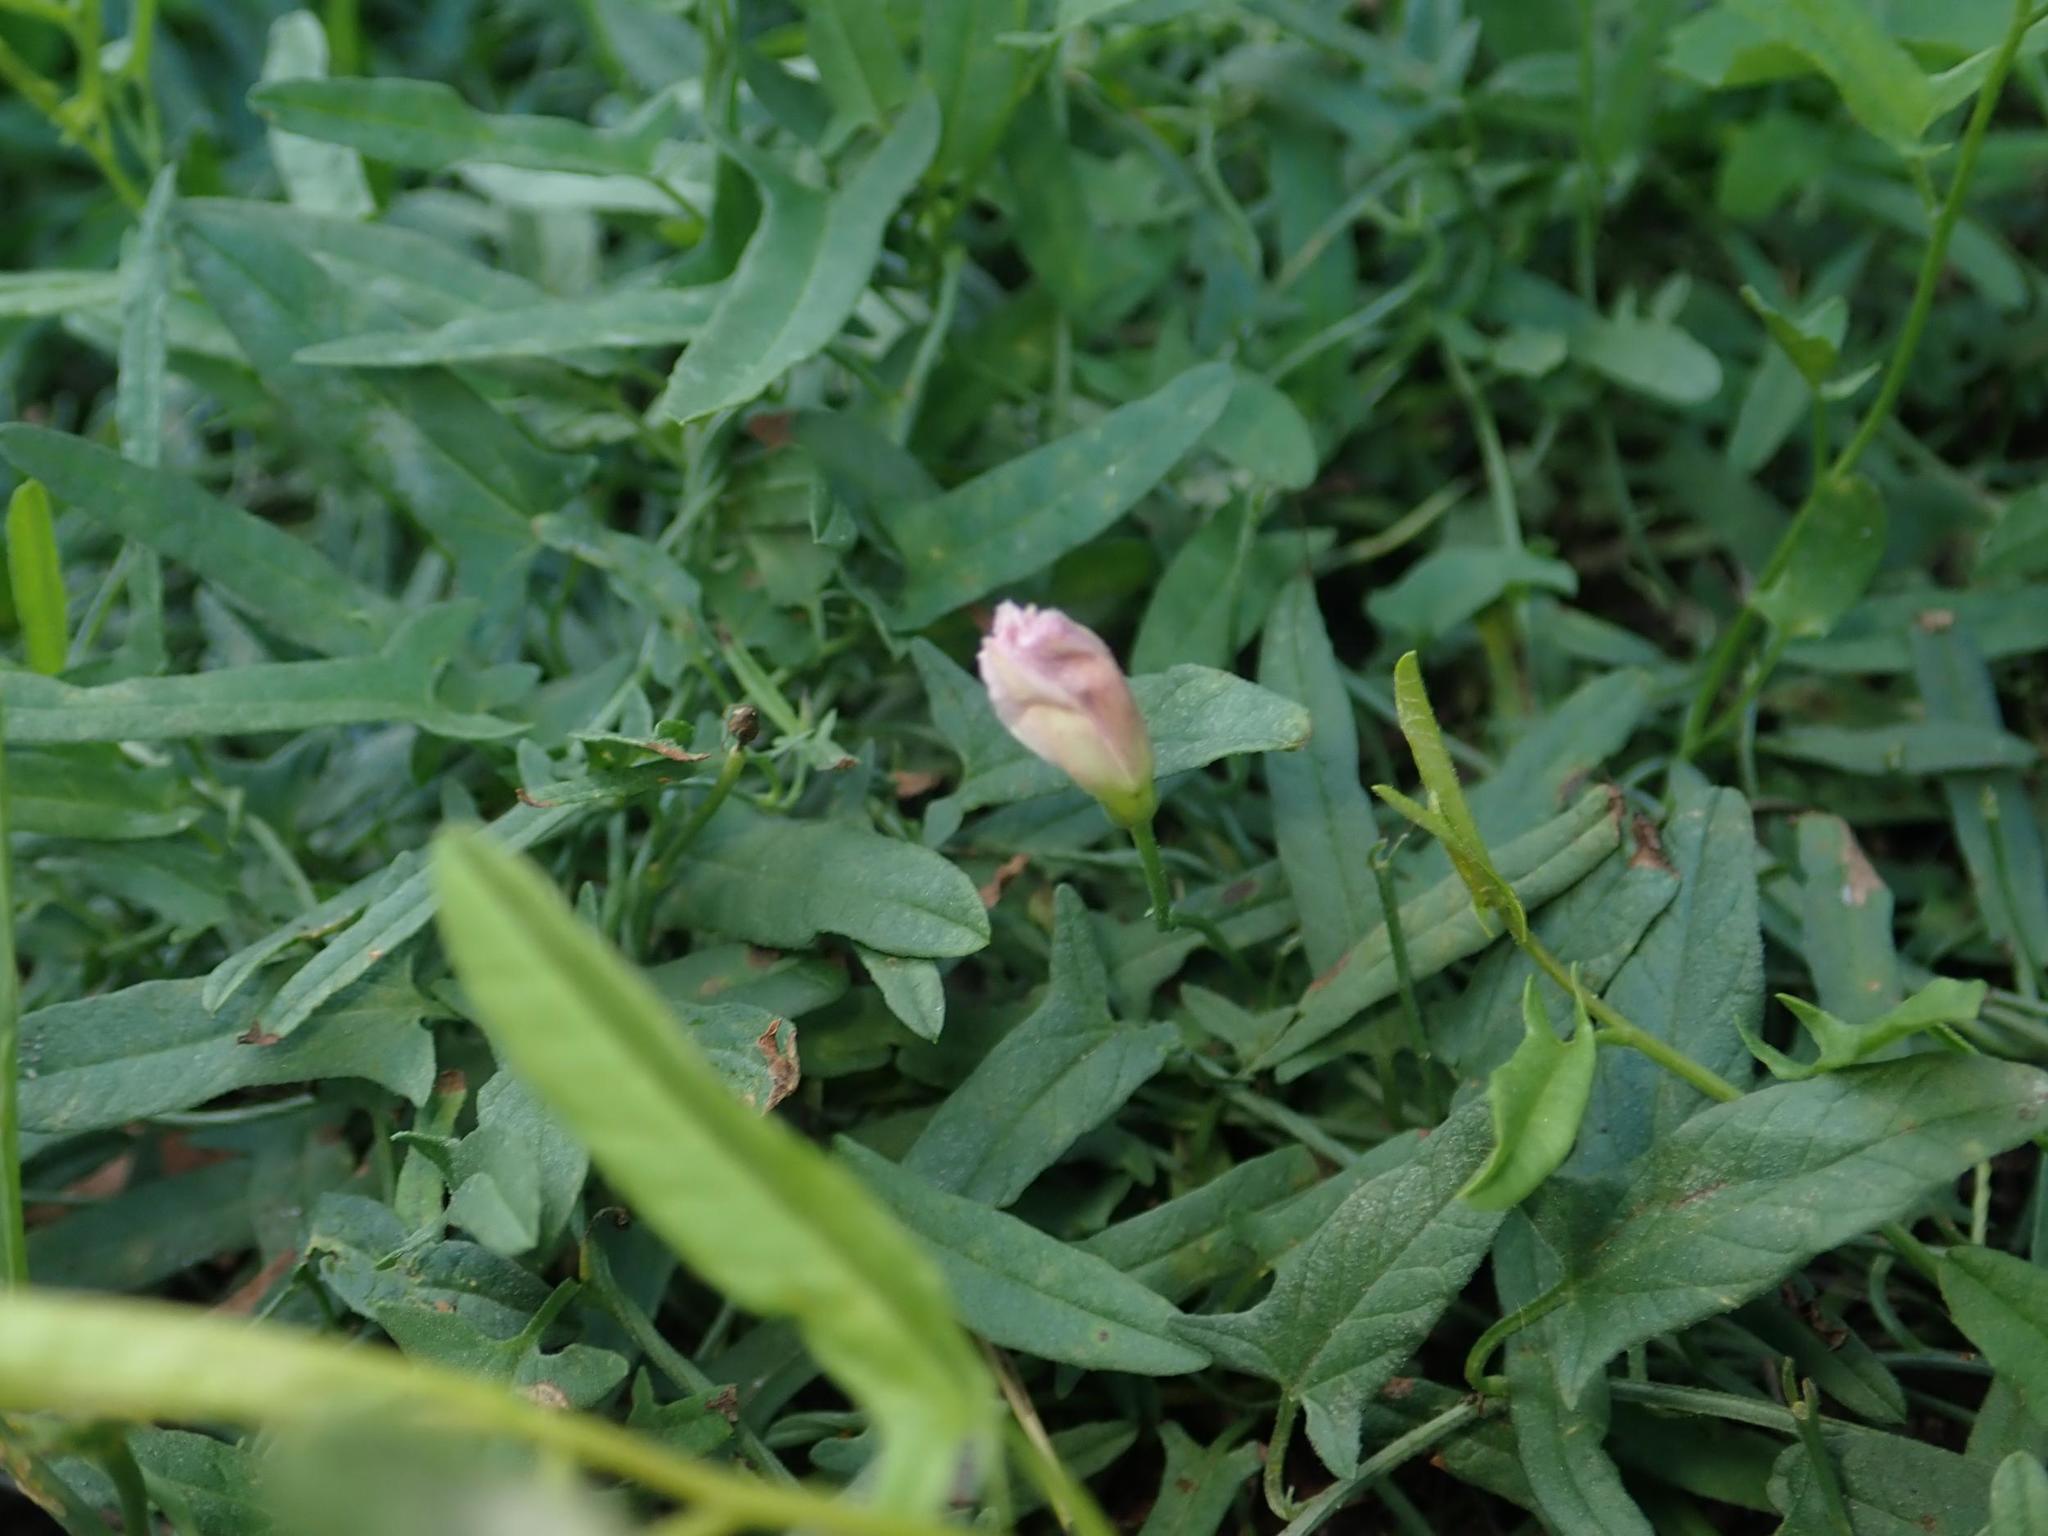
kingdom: Plantae
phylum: Tracheophyta
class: Magnoliopsida
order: Solanales
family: Convolvulaceae
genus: Convolvulus
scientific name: Convolvulus arvensis
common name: Field bindweed
